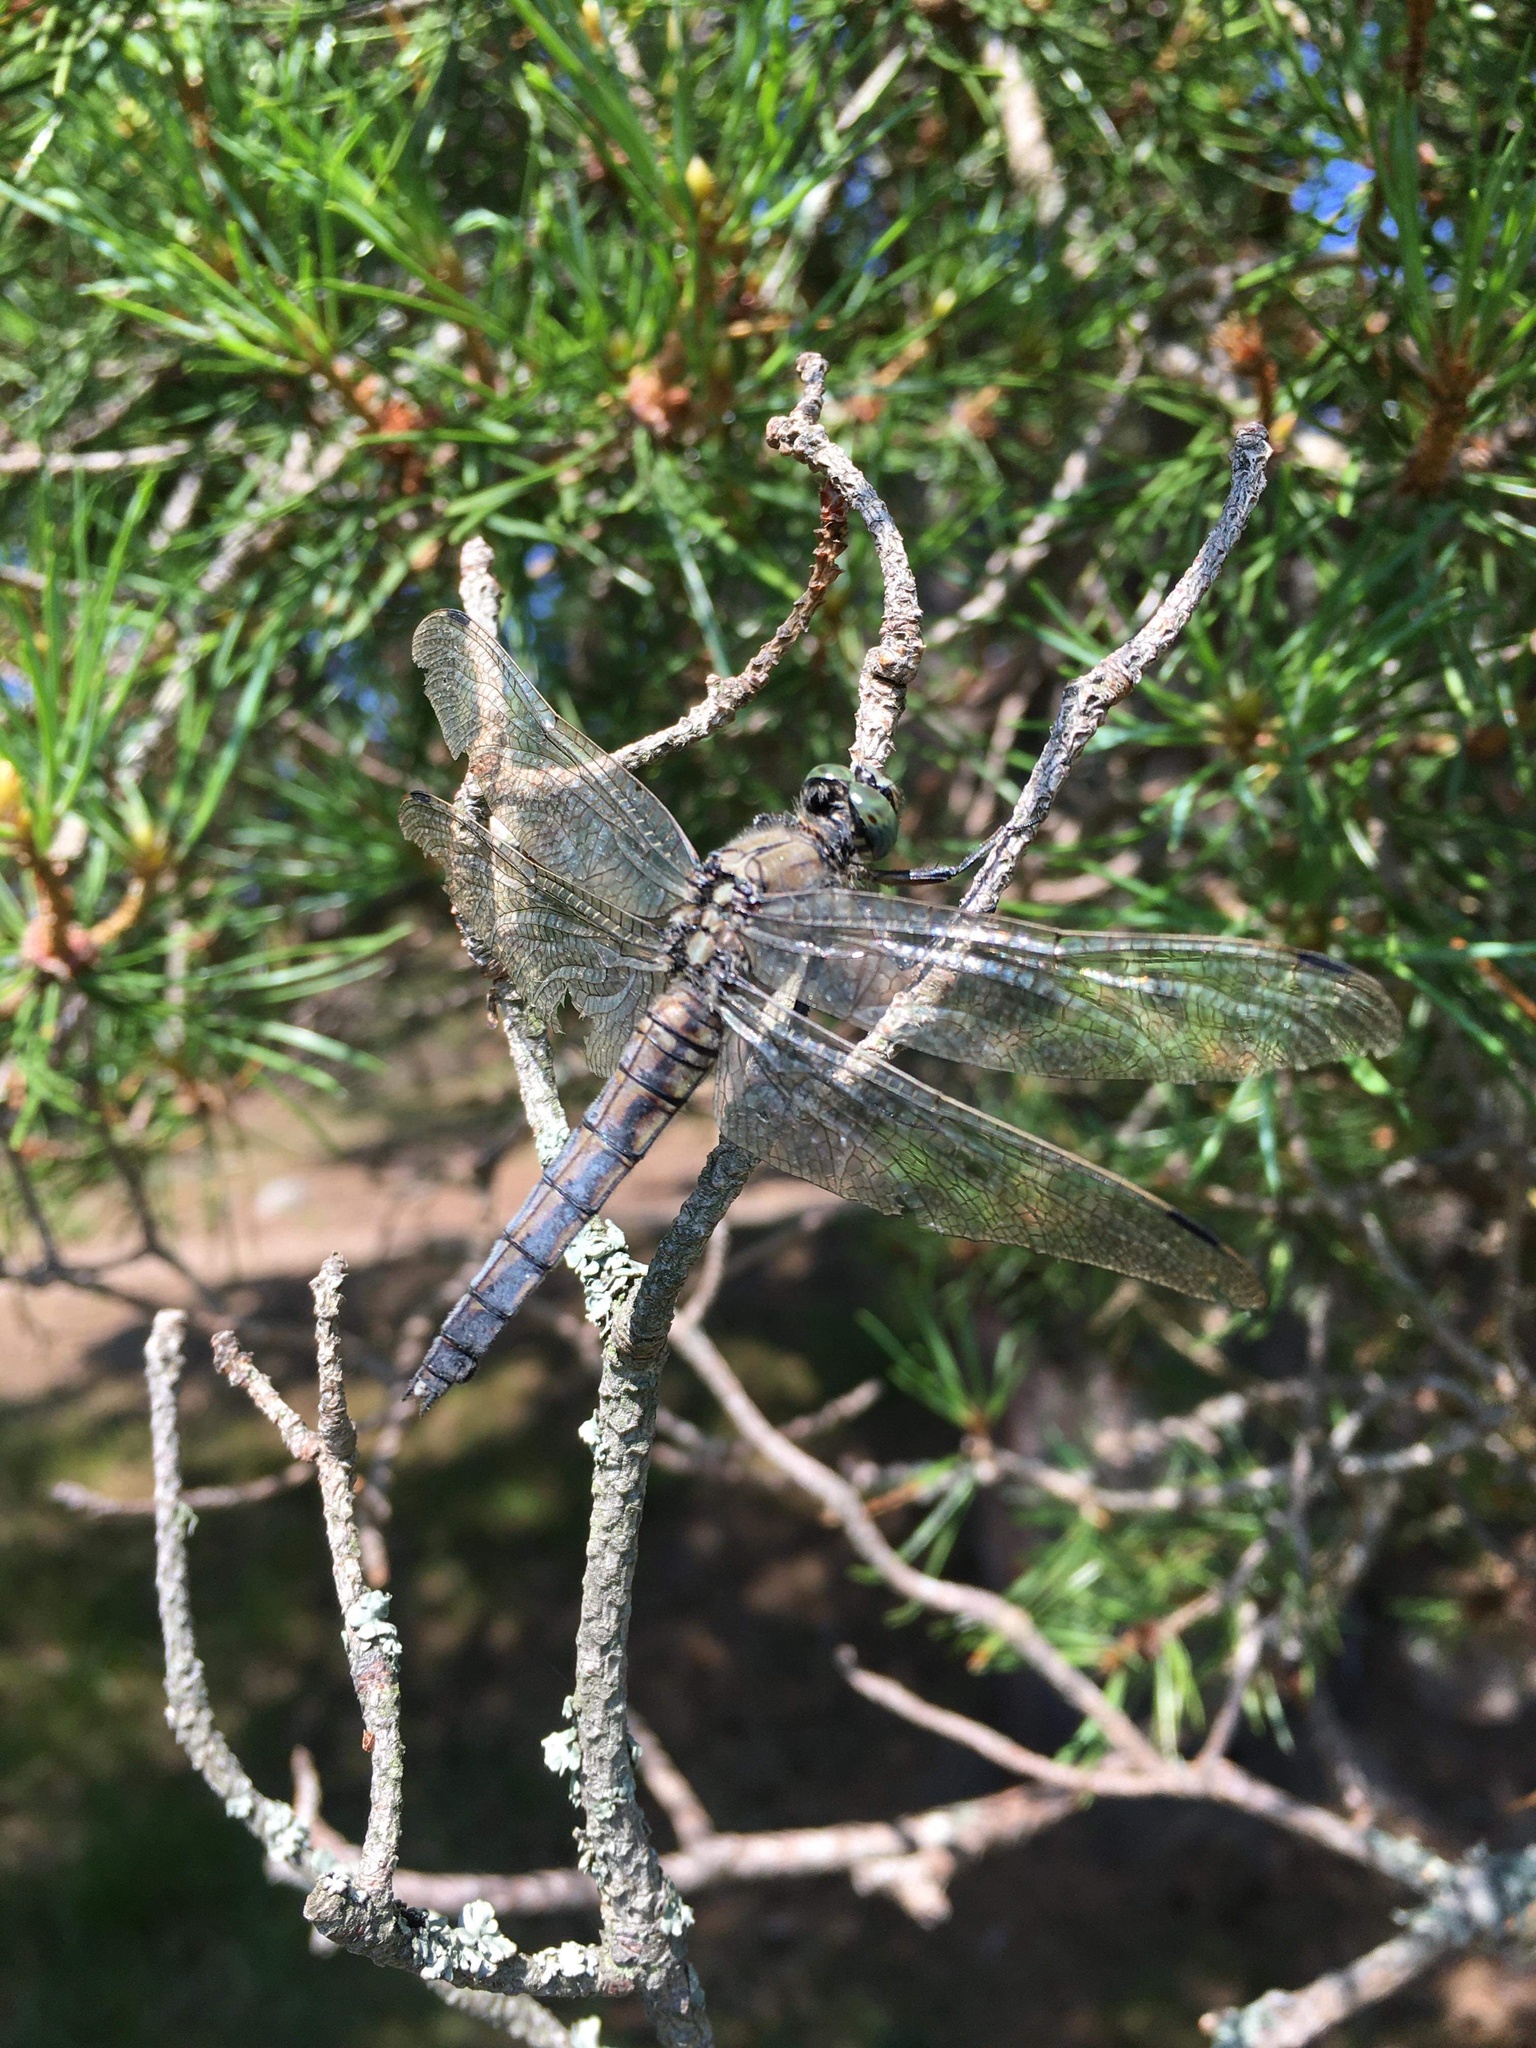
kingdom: Animalia
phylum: Arthropoda
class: Insecta
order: Odonata
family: Libellulidae
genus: Orthetrum
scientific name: Orthetrum cancellatum
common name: Black-tailed skimmer
